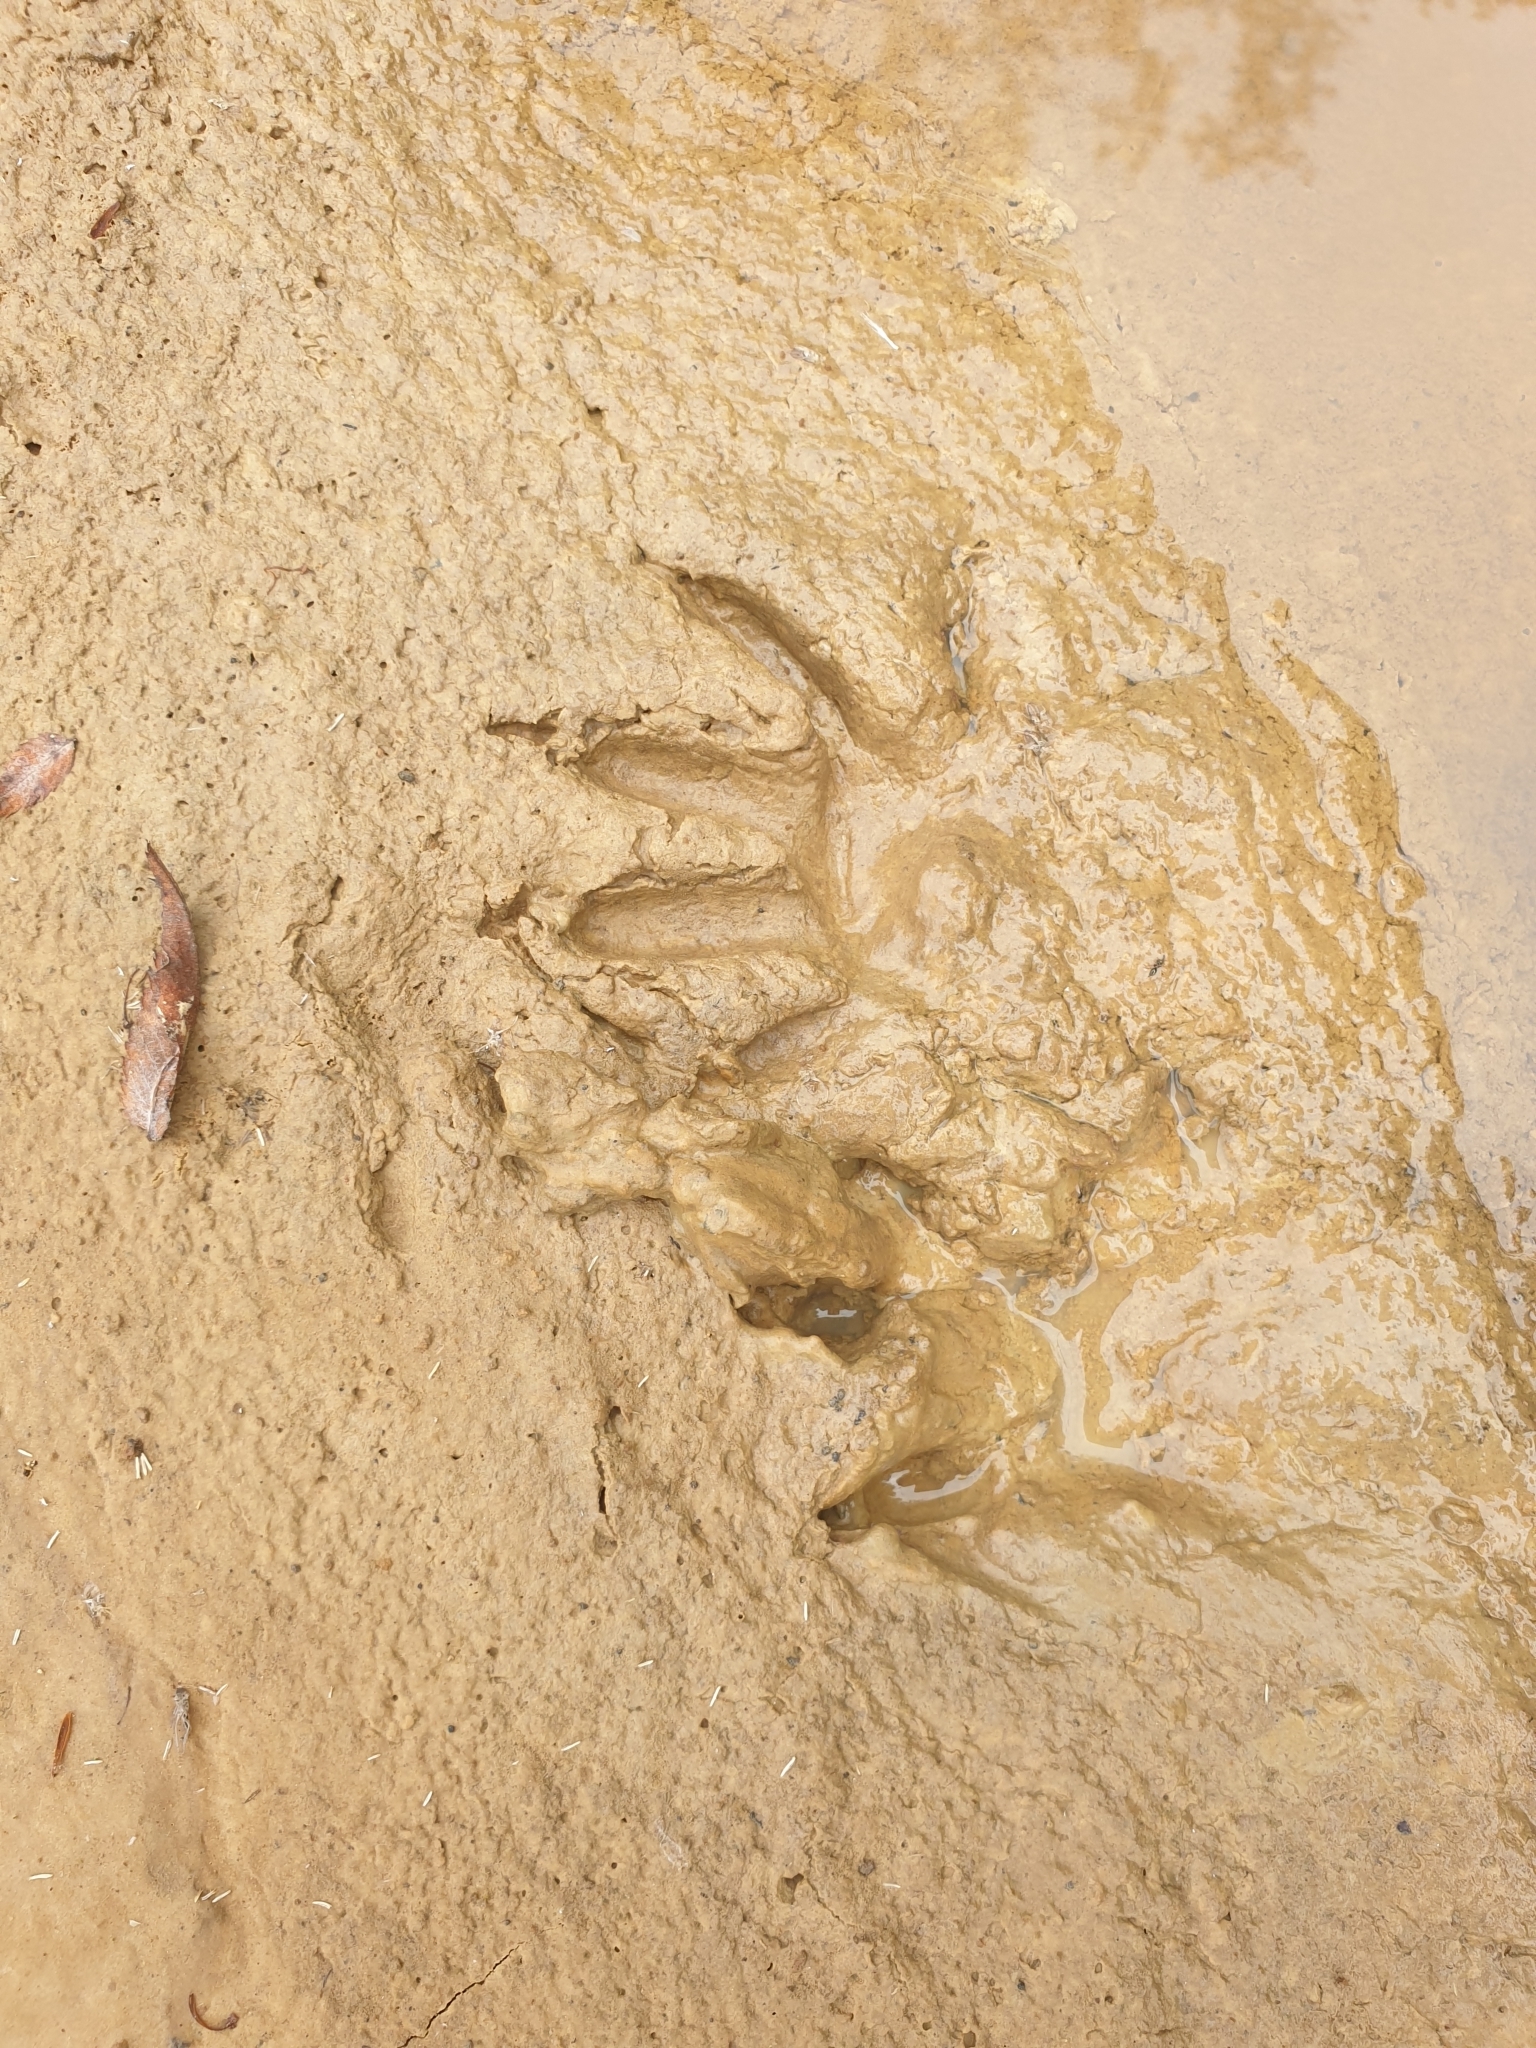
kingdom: Animalia
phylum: Chordata
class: Mammalia
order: Carnivora
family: Procyonidae
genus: Procyon
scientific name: Procyon lotor
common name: Raccoon
